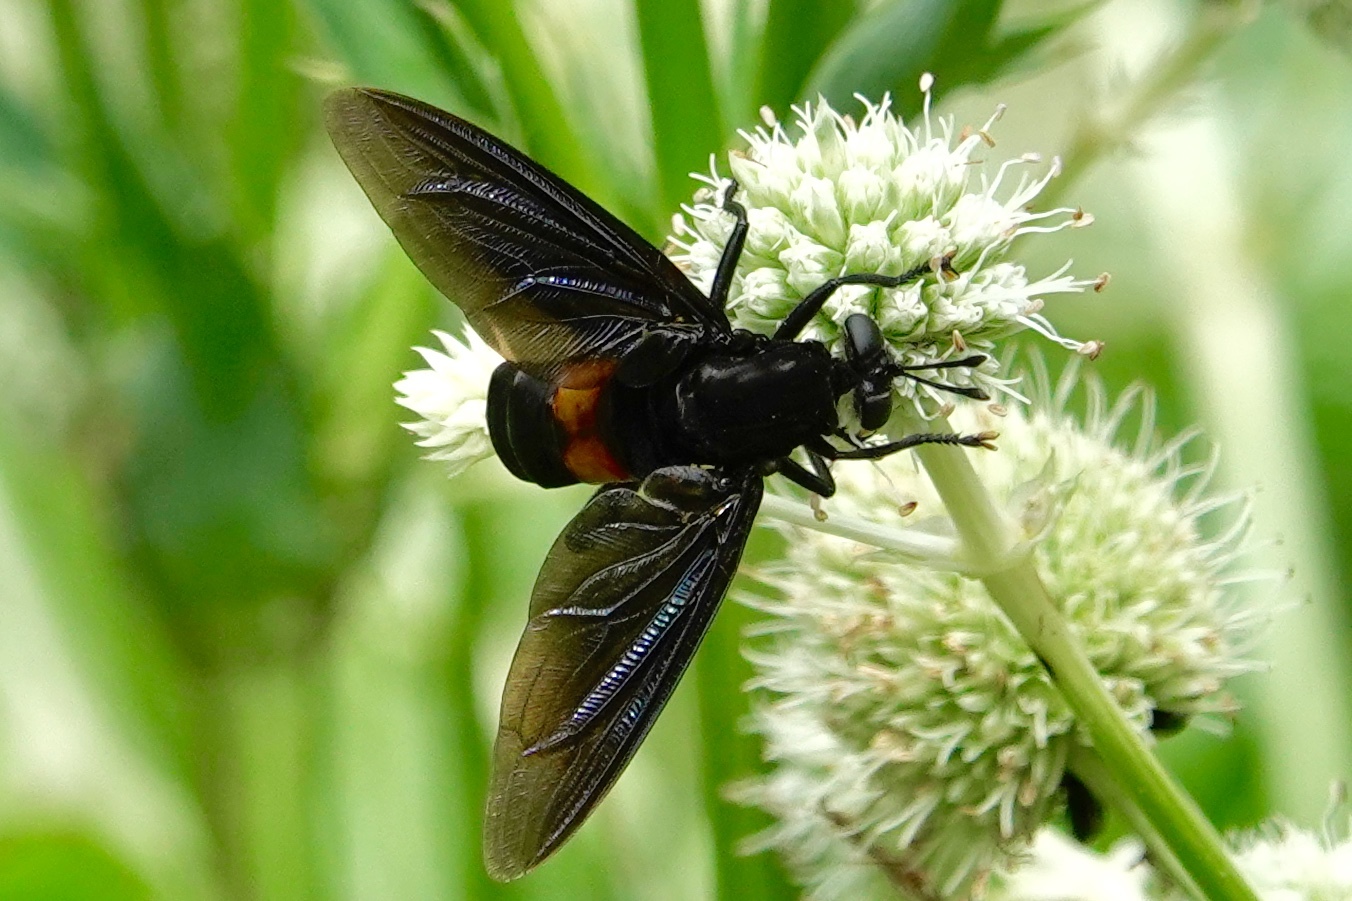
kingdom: Animalia
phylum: Arthropoda
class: Insecta
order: Diptera
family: Mydidae
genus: Mydas
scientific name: Mydas clavatus
